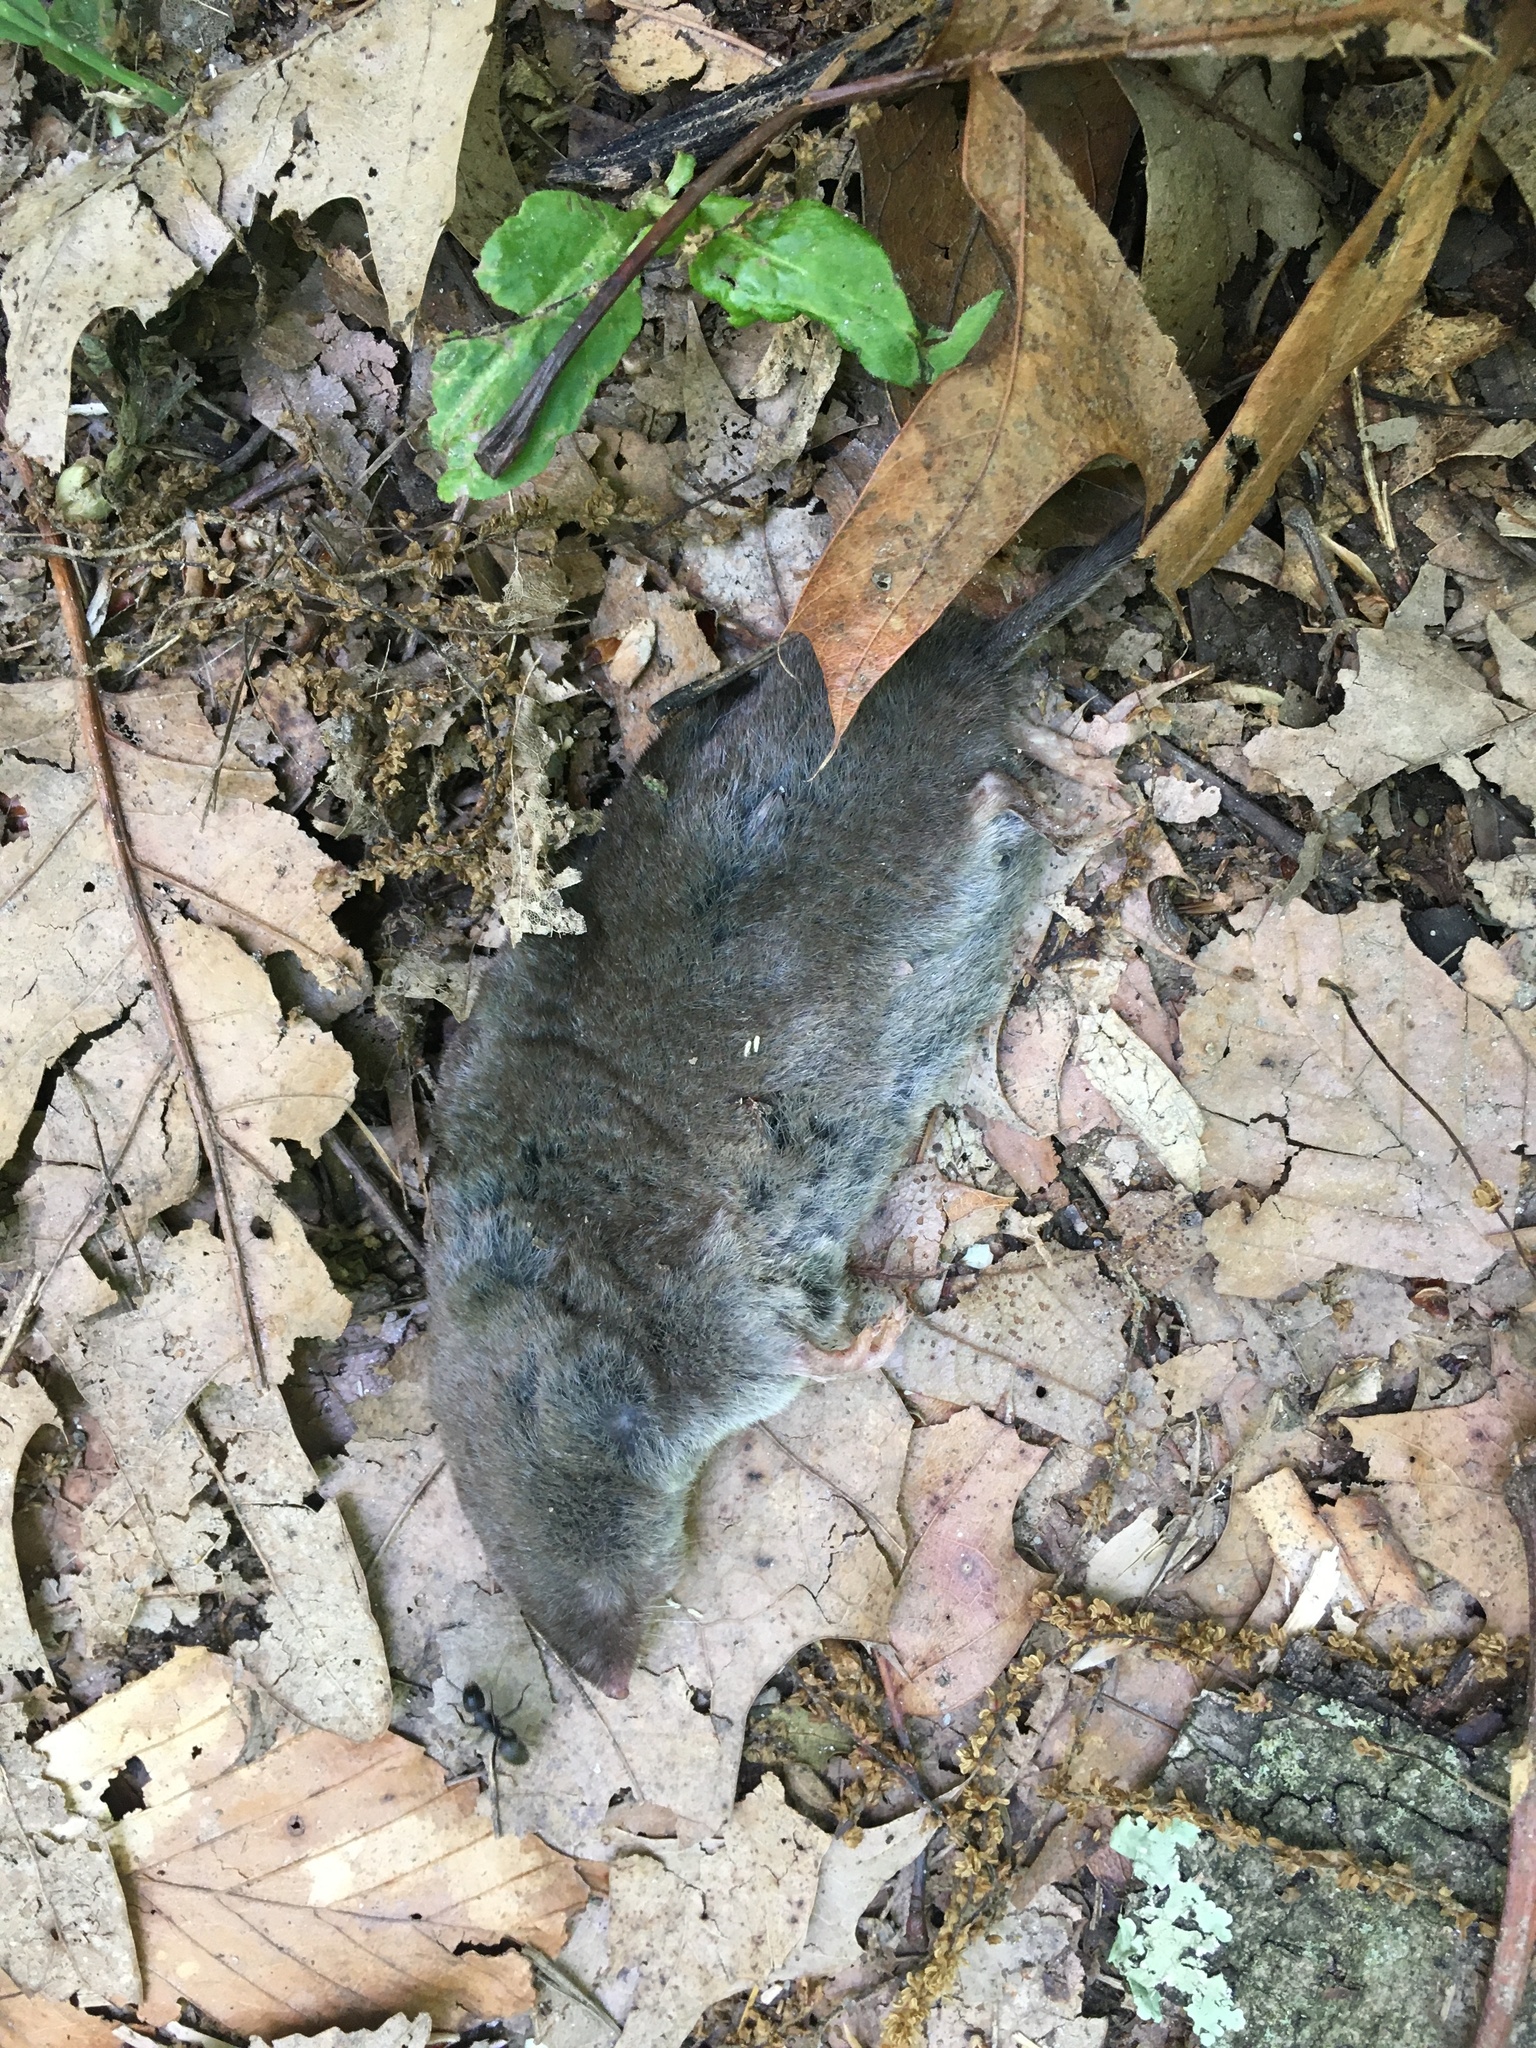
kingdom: Animalia
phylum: Chordata
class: Mammalia
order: Soricomorpha
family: Soricidae
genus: Blarina
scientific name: Blarina brevicauda
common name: Northern short-tailed shrew
